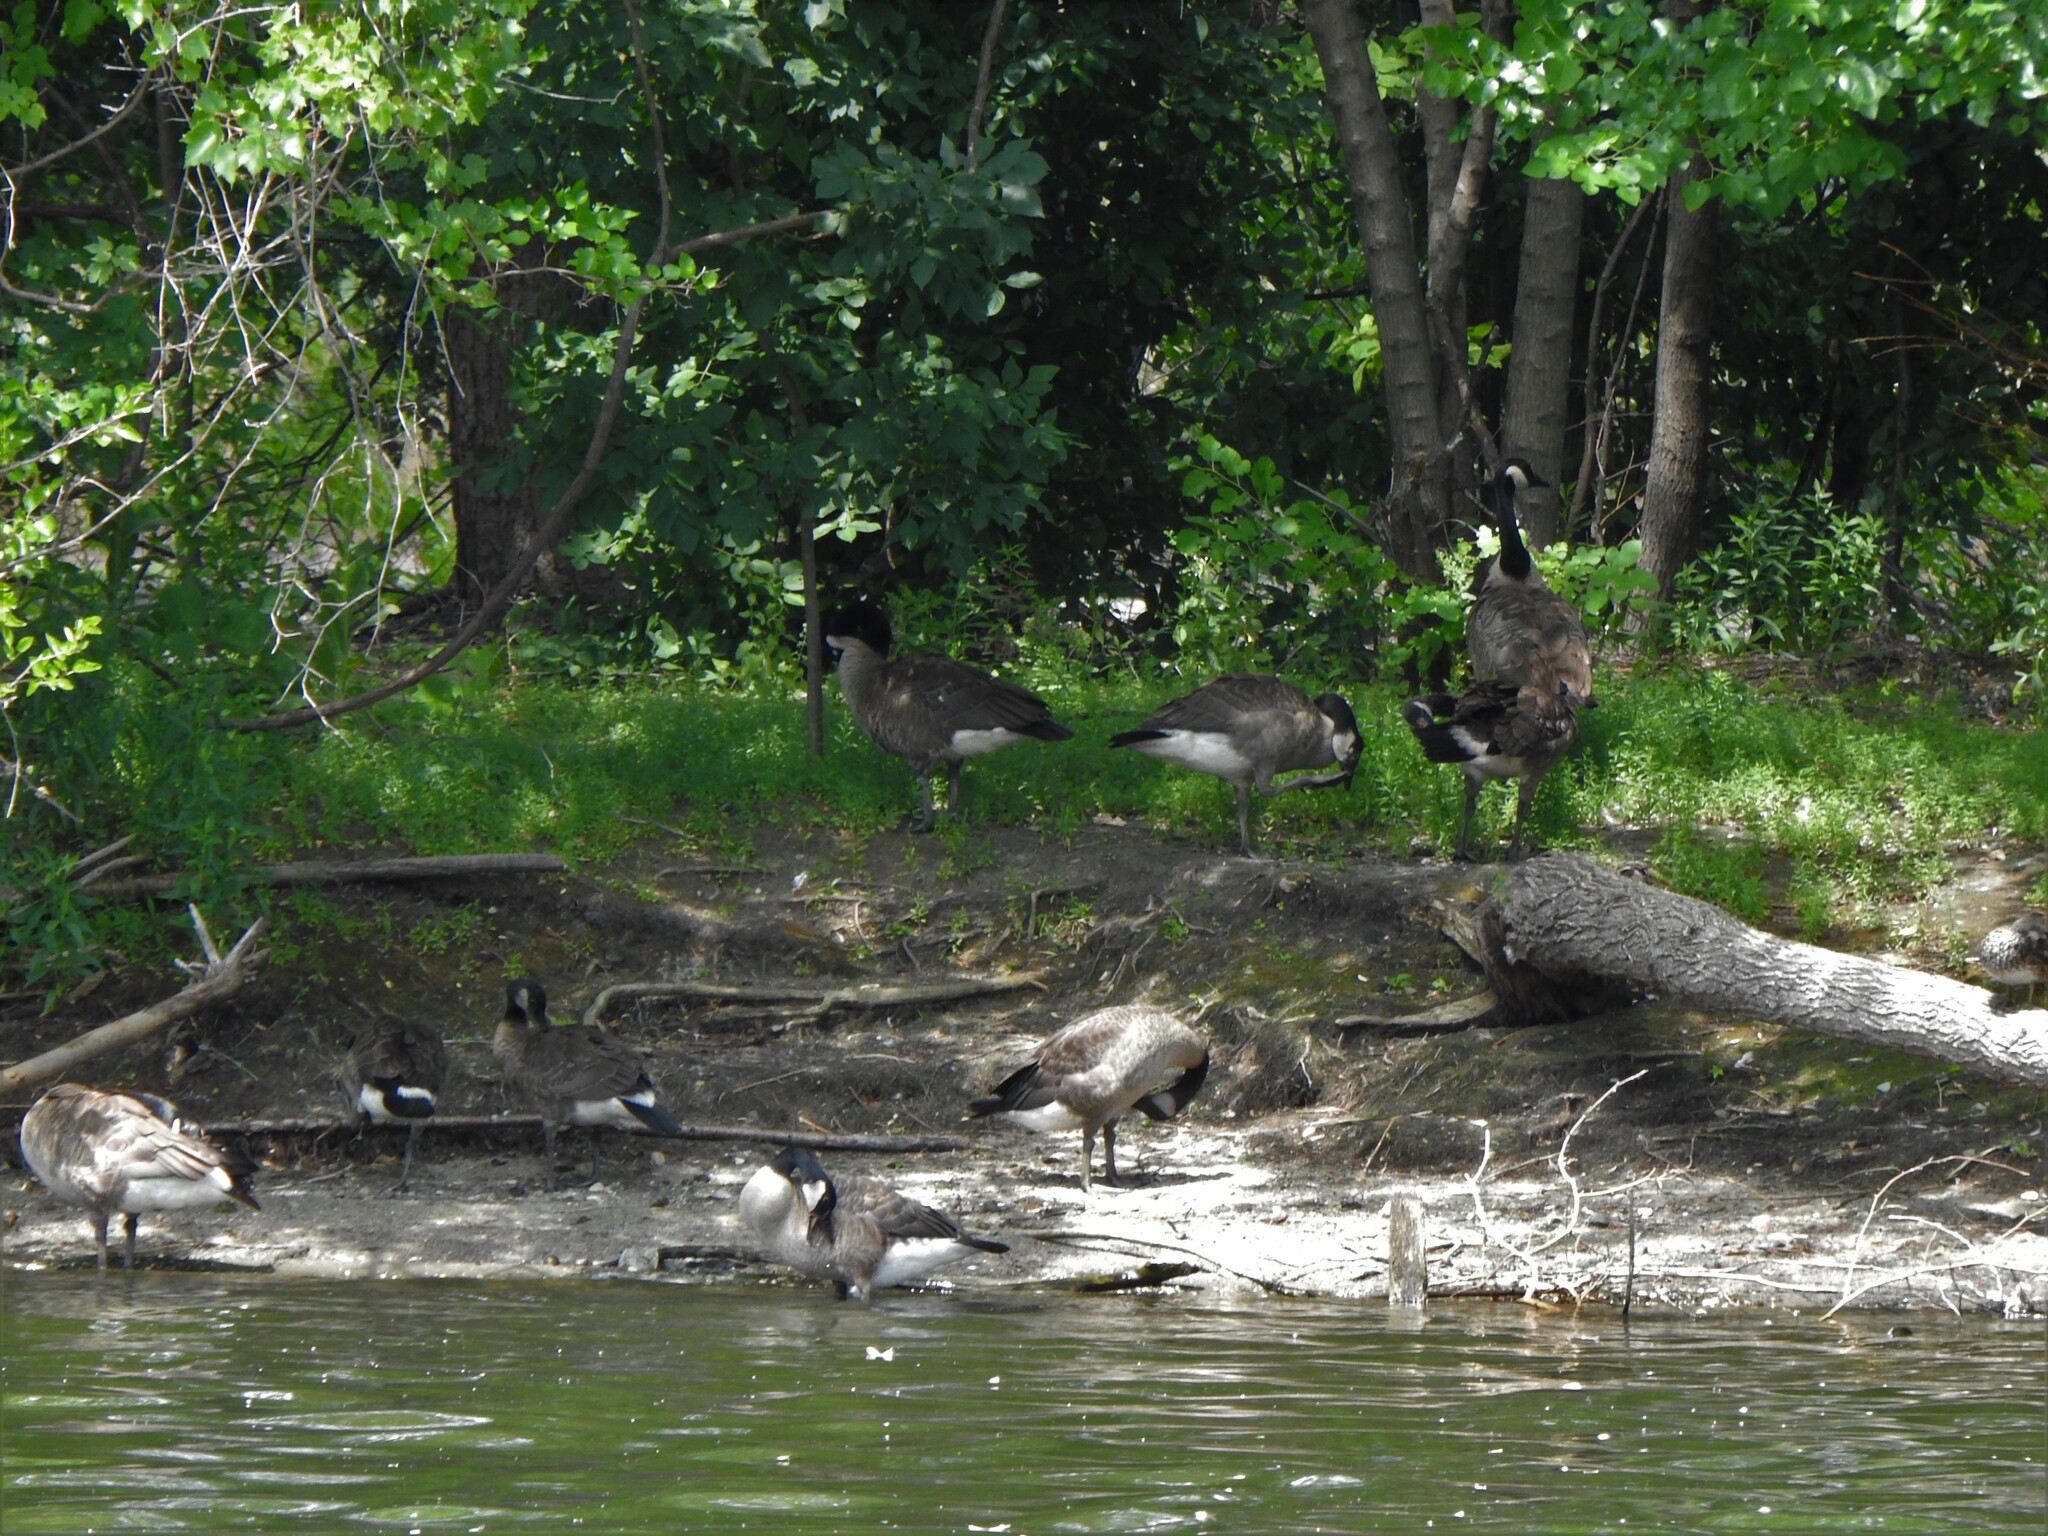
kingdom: Animalia
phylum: Chordata
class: Aves
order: Anseriformes
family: Anatidae
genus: Branta
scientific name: Branta canadensis
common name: Canada goose
